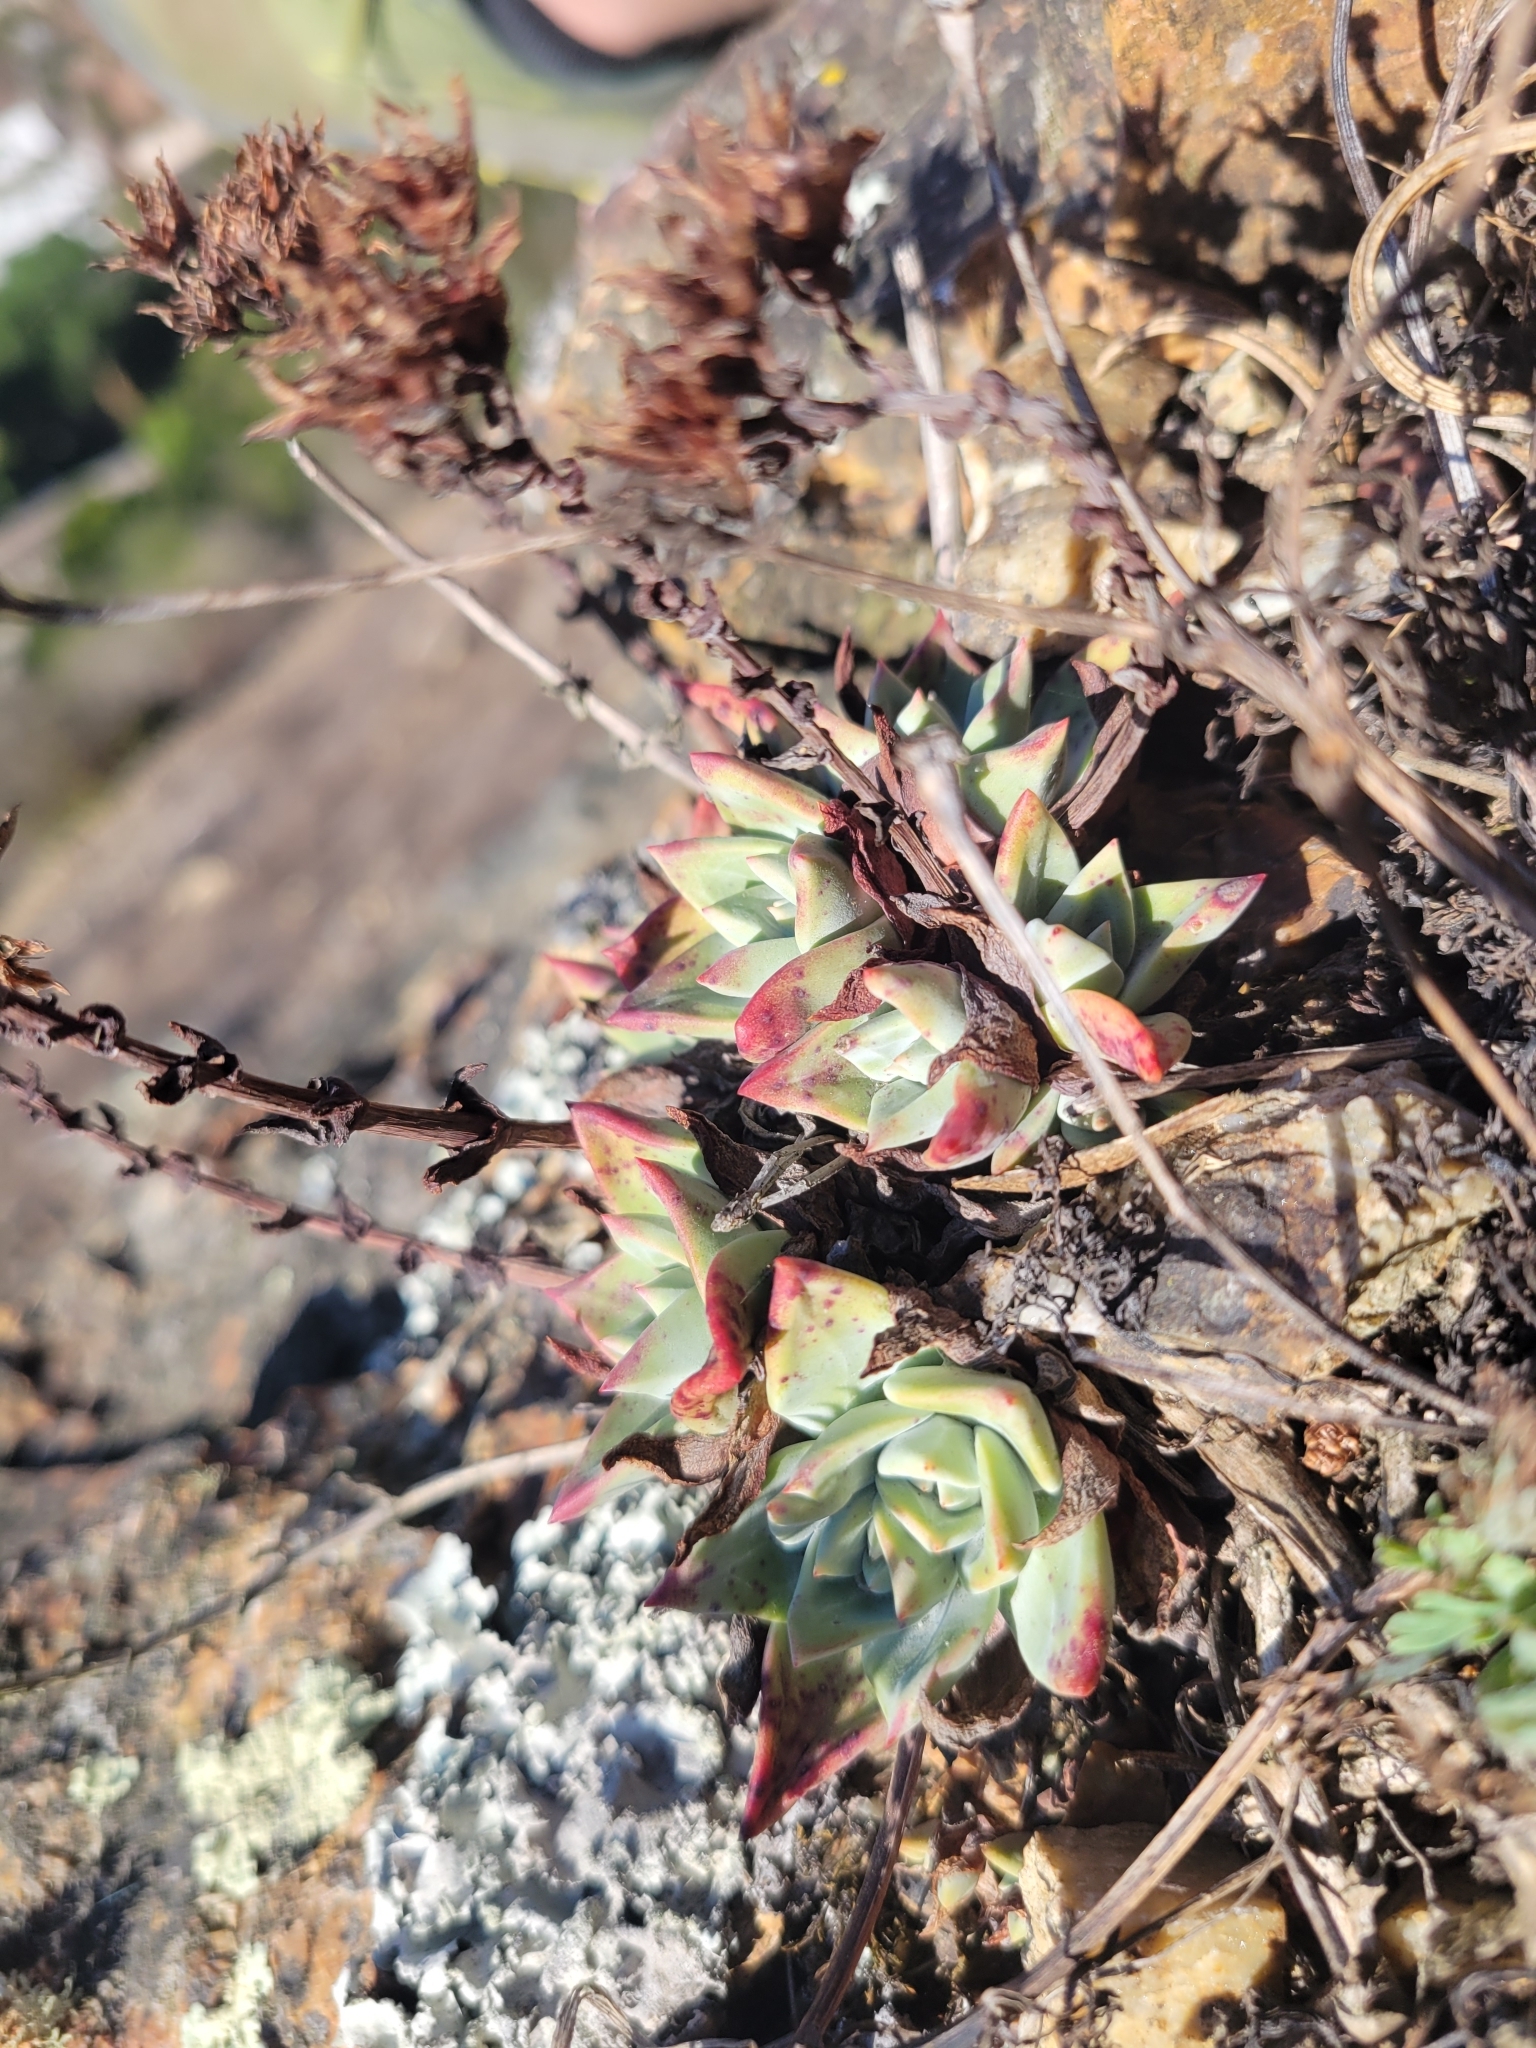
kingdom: Plantae
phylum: Tracheophyta
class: Magnoliopsida
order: Saxifragales
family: Crassulaceae
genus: Dudleya
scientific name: Dudleya farinosa
